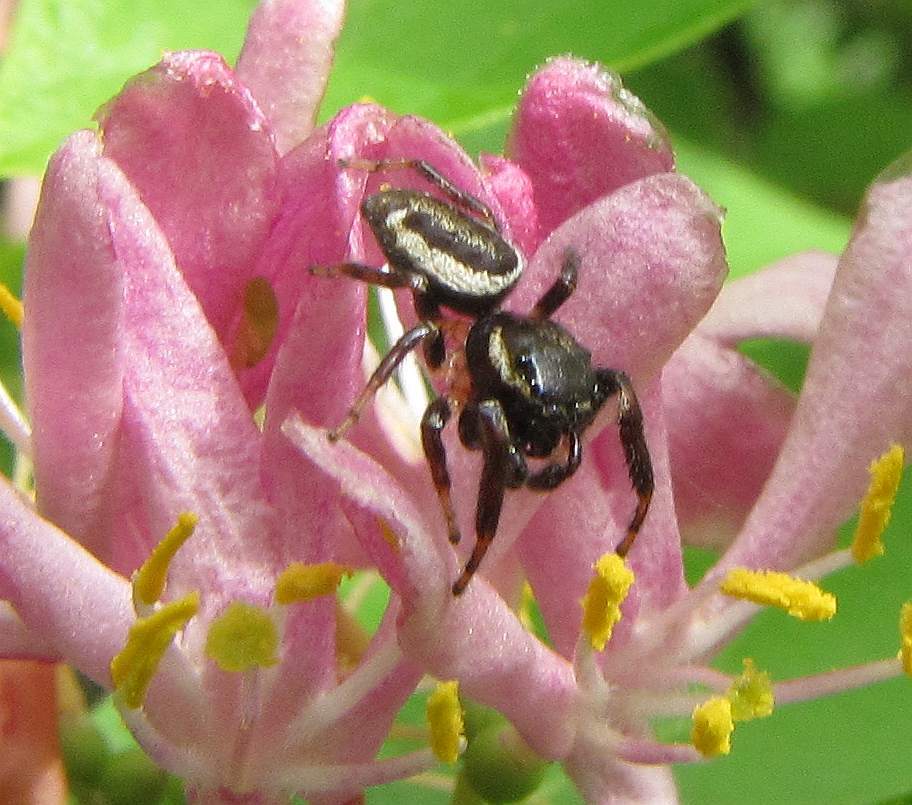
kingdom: Animalia
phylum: Arthropoda
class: Arachnida
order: Araneae
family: Salticidae
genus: Eris
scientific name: Eris militaris
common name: Bronze jumper
